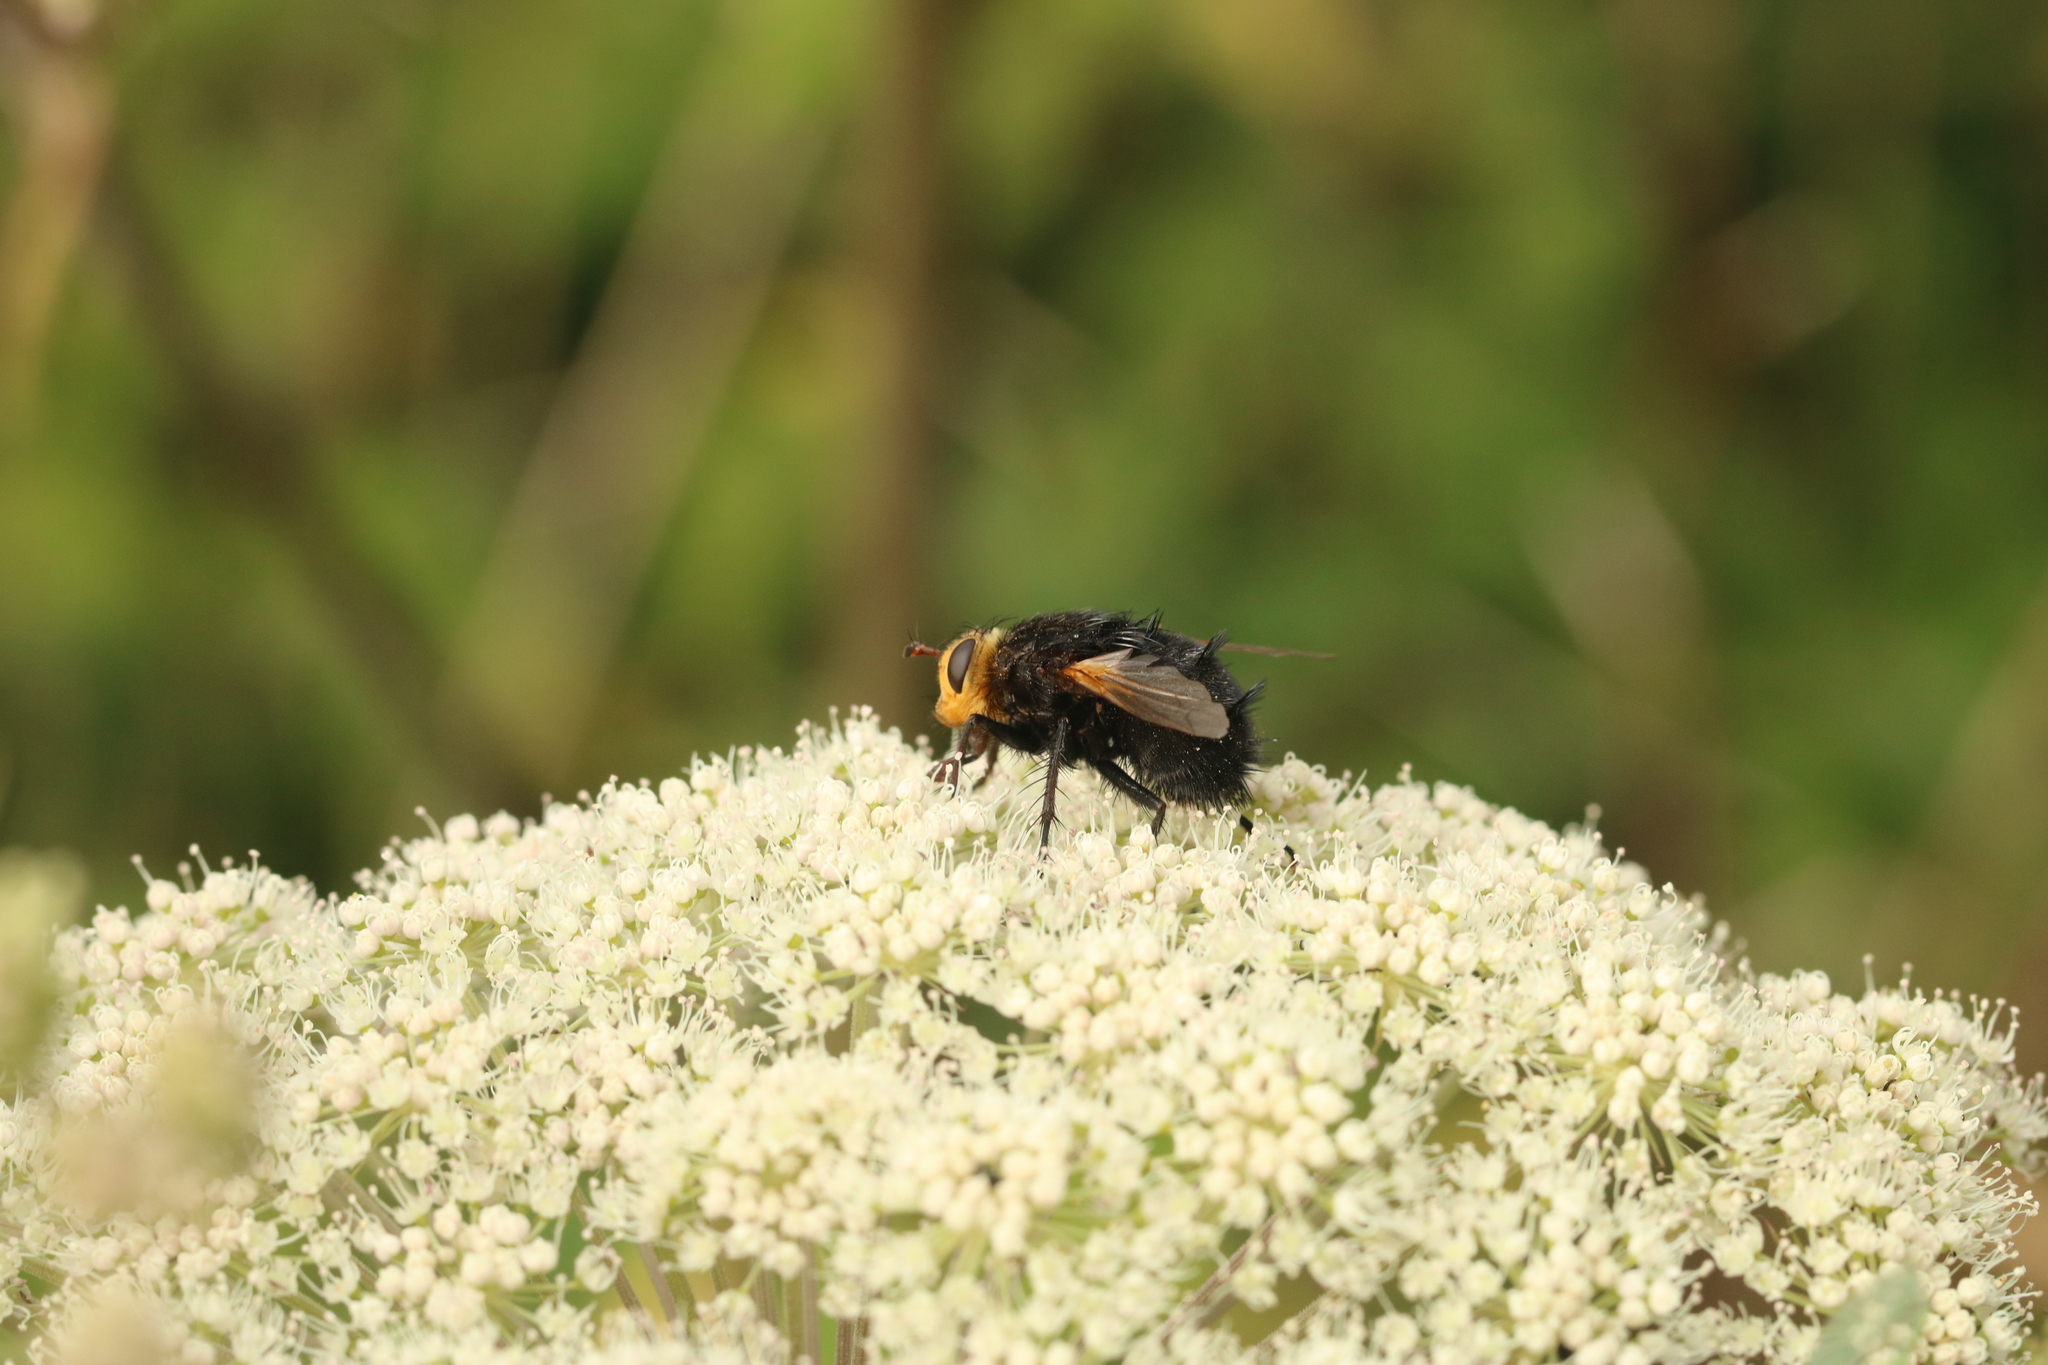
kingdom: Animalia
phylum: Arthropoda
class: Insecta
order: Diptera
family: Tachinidae
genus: Tachina
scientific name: Tachina grossa
